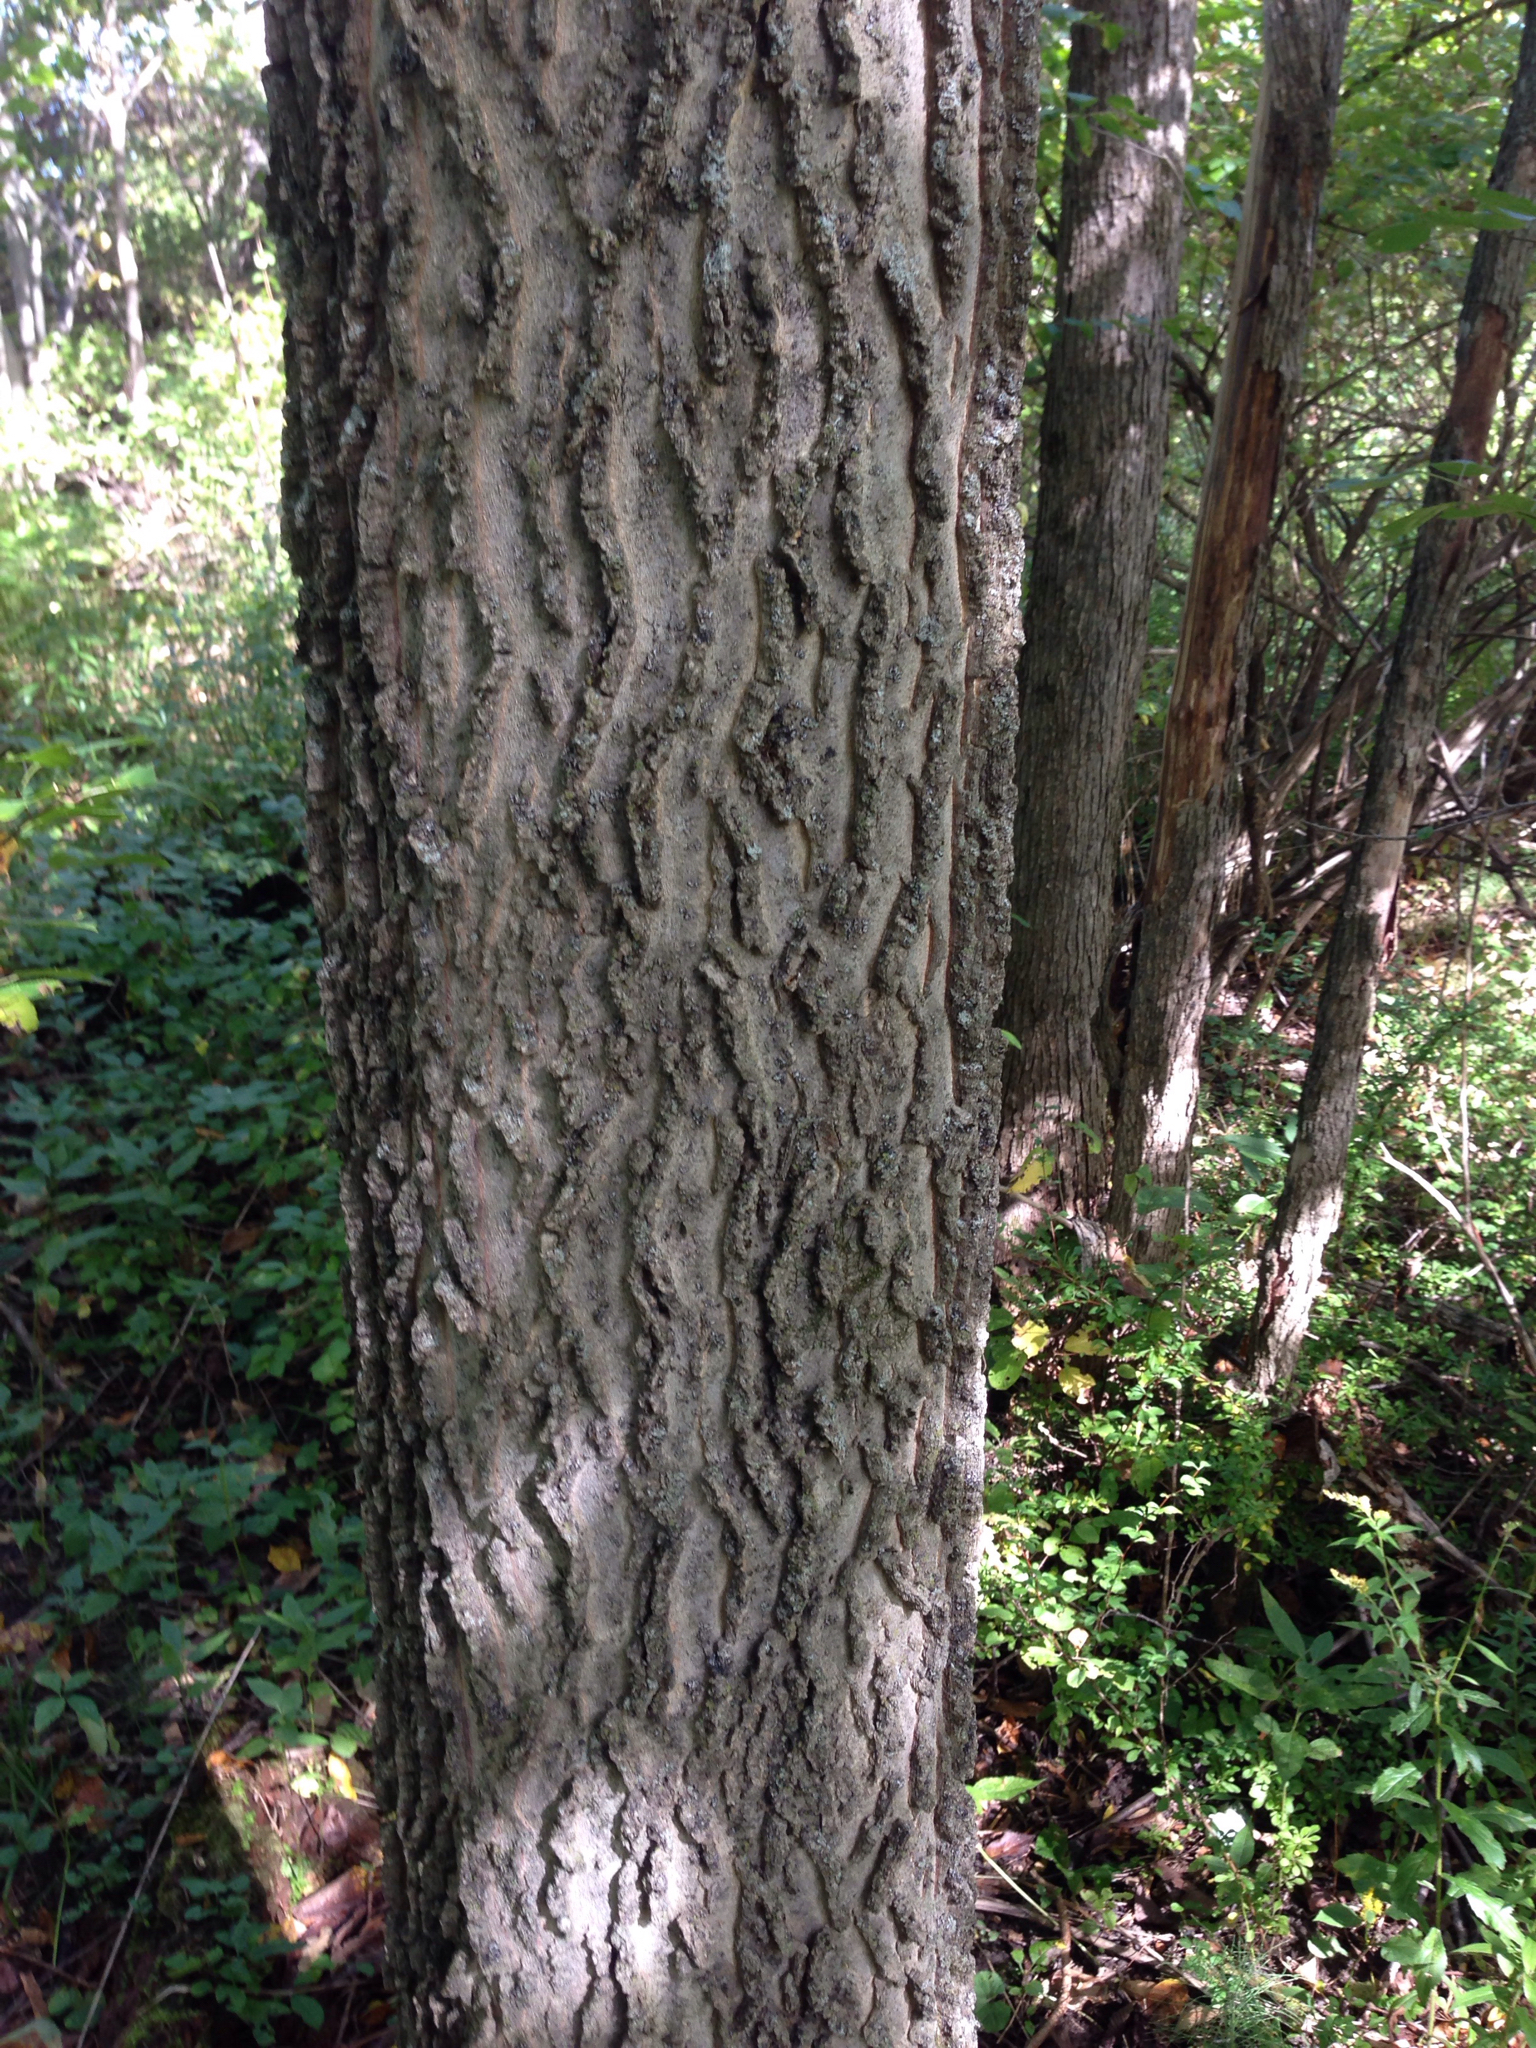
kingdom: Plantae
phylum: Tracheophyta
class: Magnoliopsida
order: Rosales
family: Cannabaceae
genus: Celtis
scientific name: Celtis occidentalis
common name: Common hackberry
